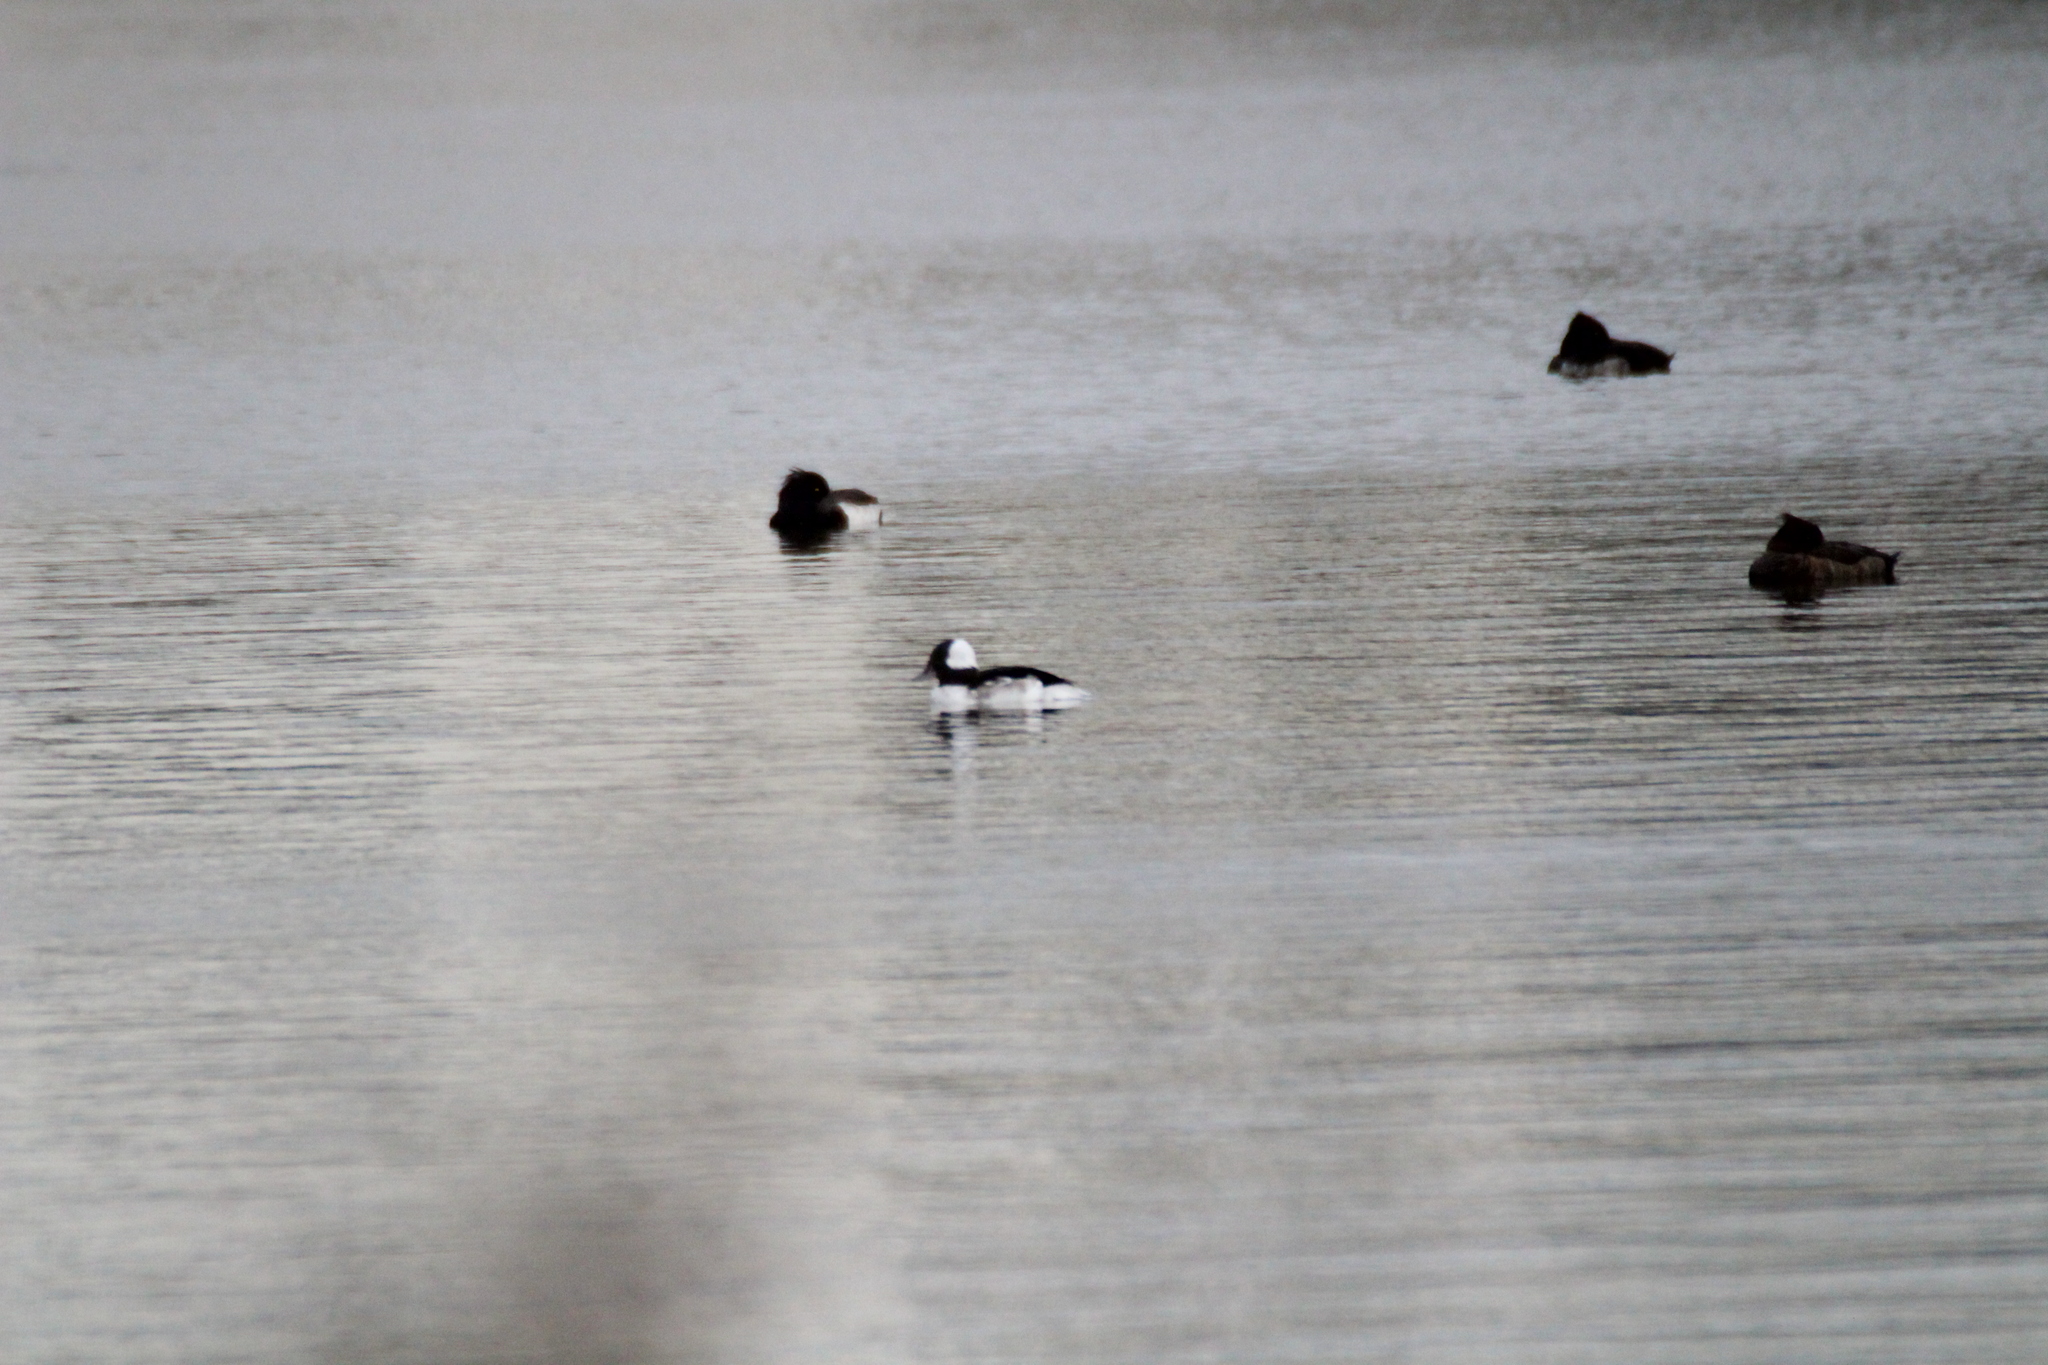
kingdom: Animalia
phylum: Chordata
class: Aves
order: Anseriformes
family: Anatidae
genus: Bucephala
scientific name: Bucephala albeola
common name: Bufflehead
